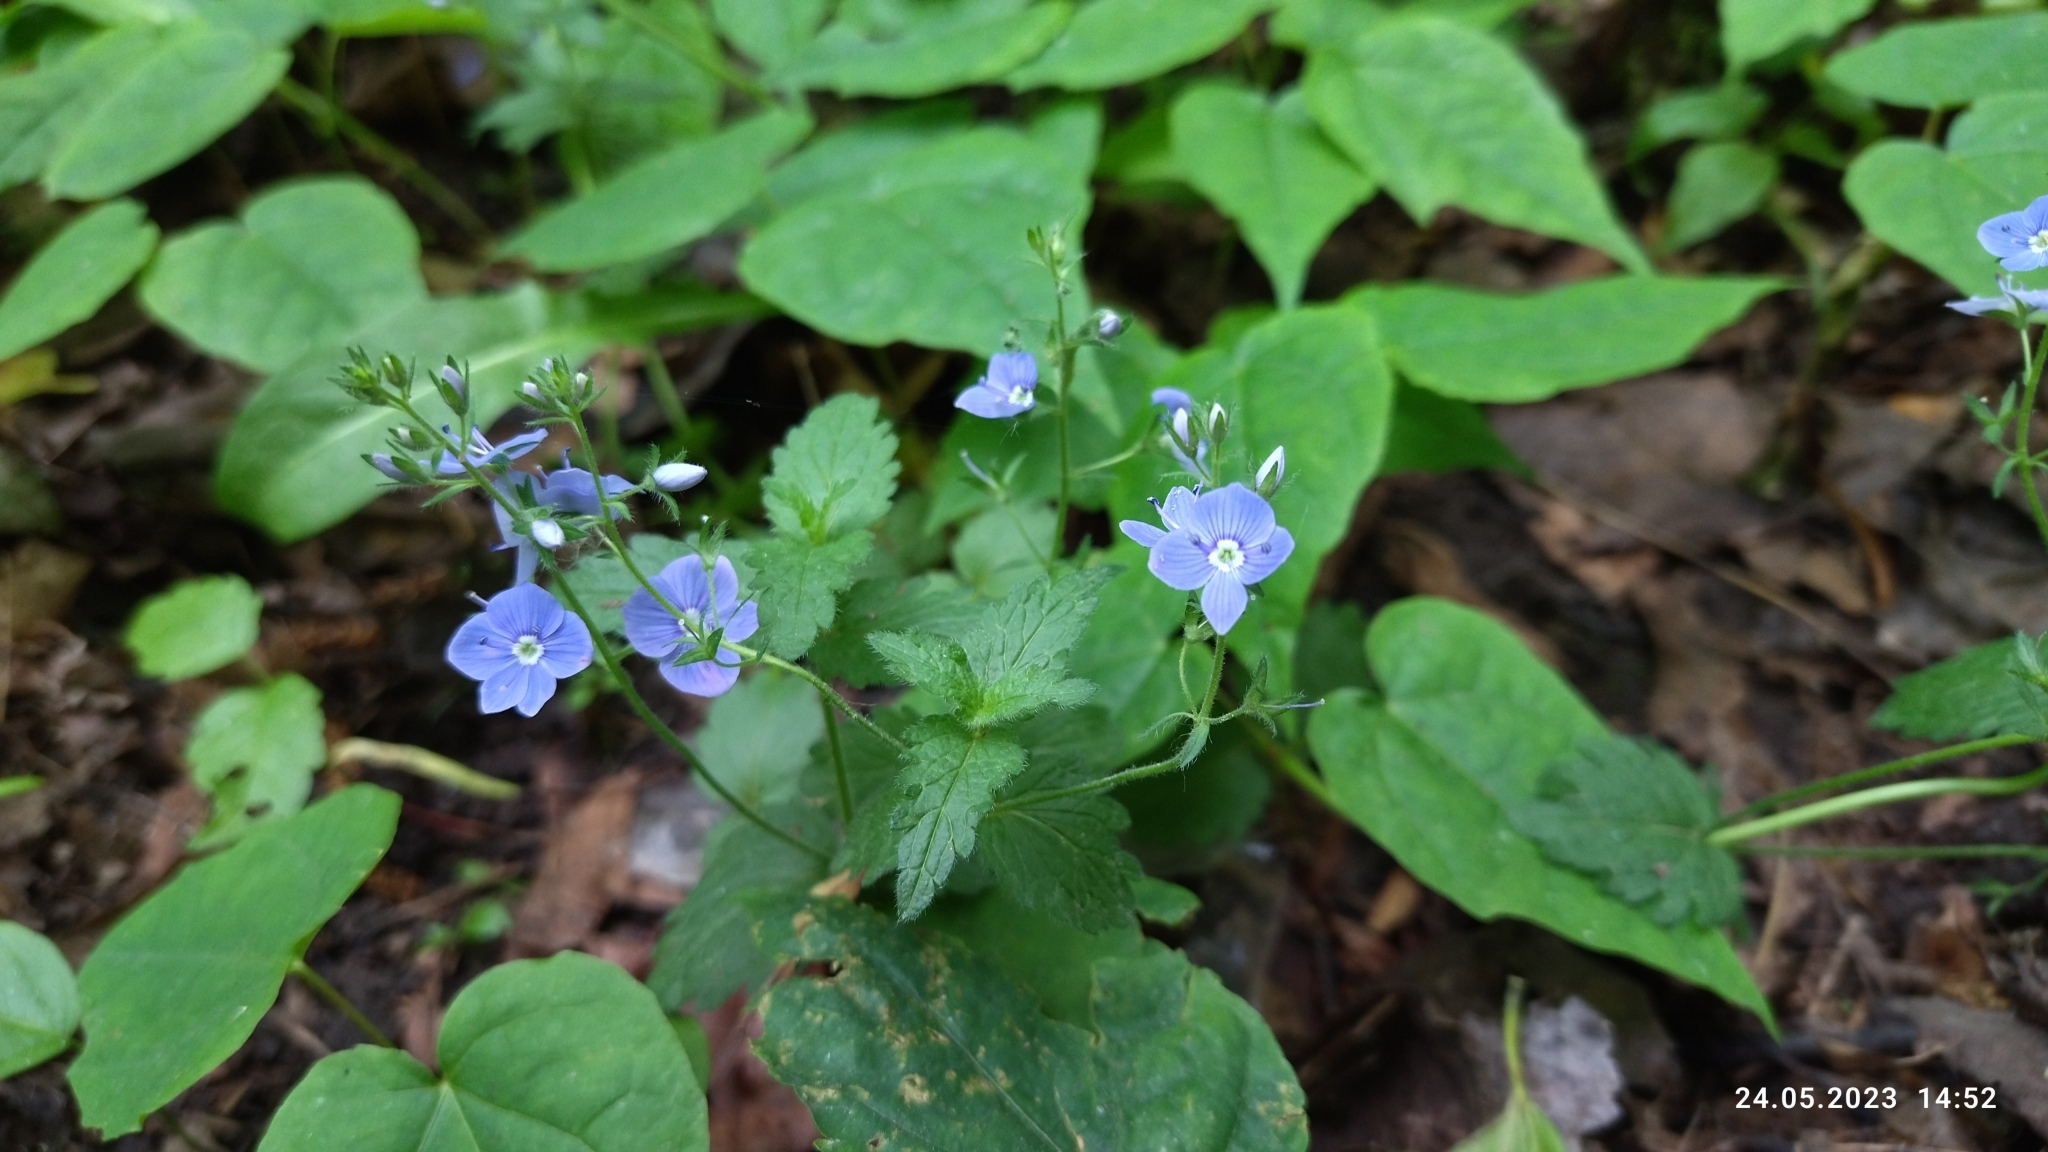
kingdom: Plantae
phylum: Tracheophyta
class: Magnoliopsida
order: Lamiales
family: Plantaginaceae
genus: Veronica
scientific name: Veronica chamaedrys
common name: Germander speedwell
